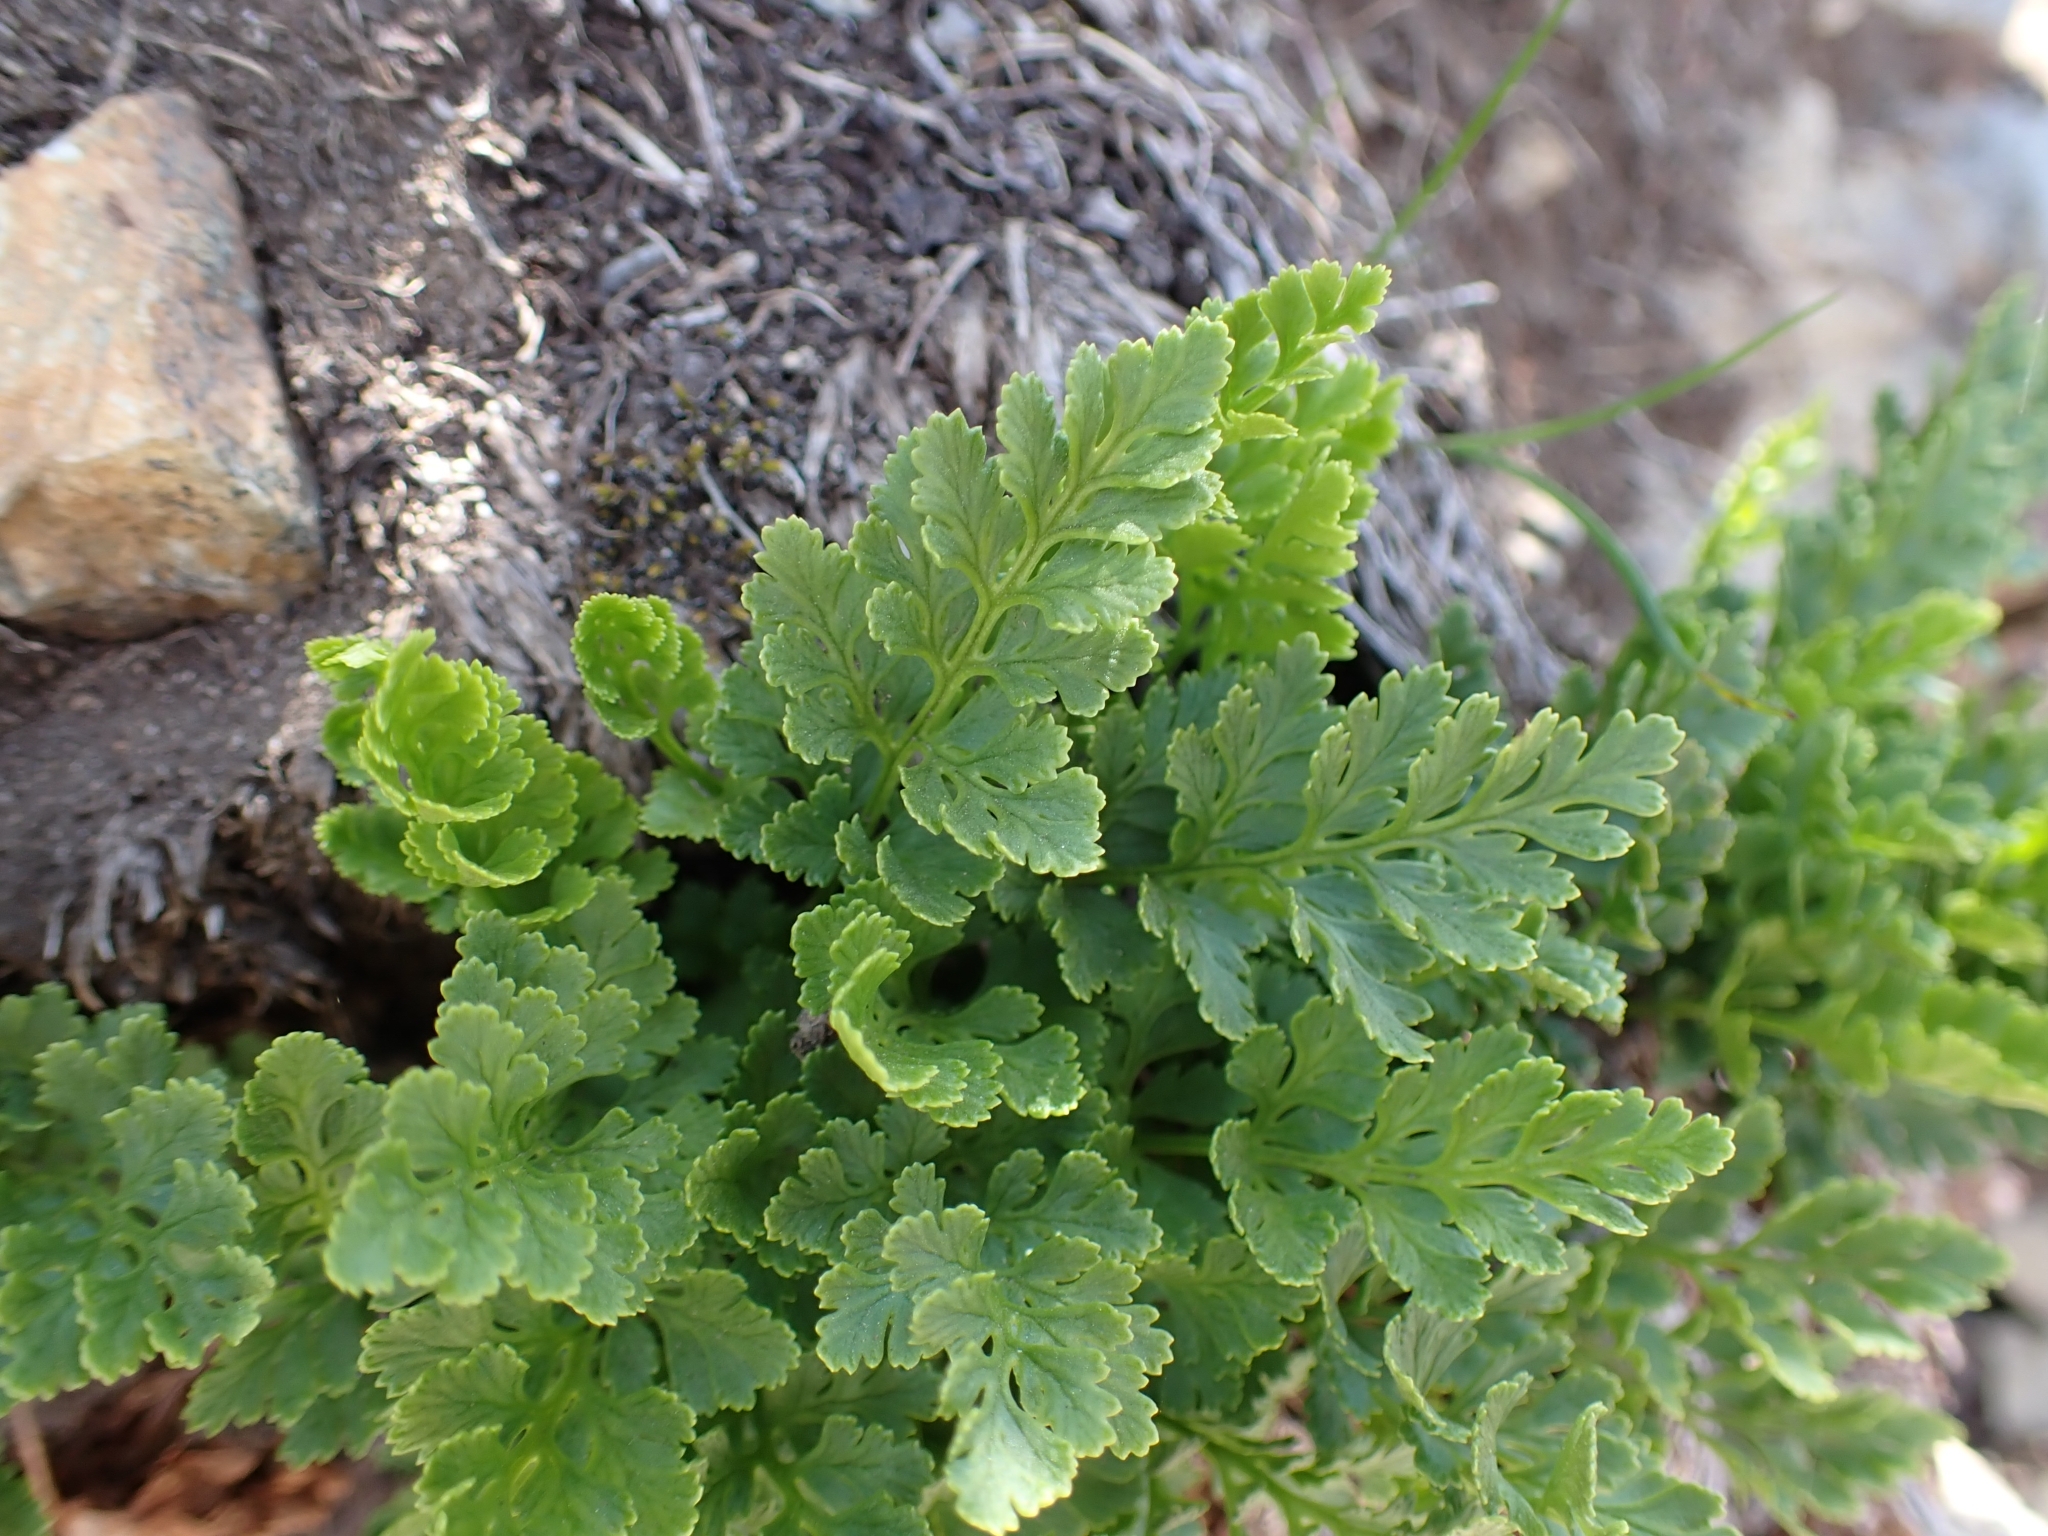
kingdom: Plantae
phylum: Tracheophyta
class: Polypodiopsida
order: Polypodiales
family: Pteridaceae
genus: Cryptogramma
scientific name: Cryptogramma acrostichoides
